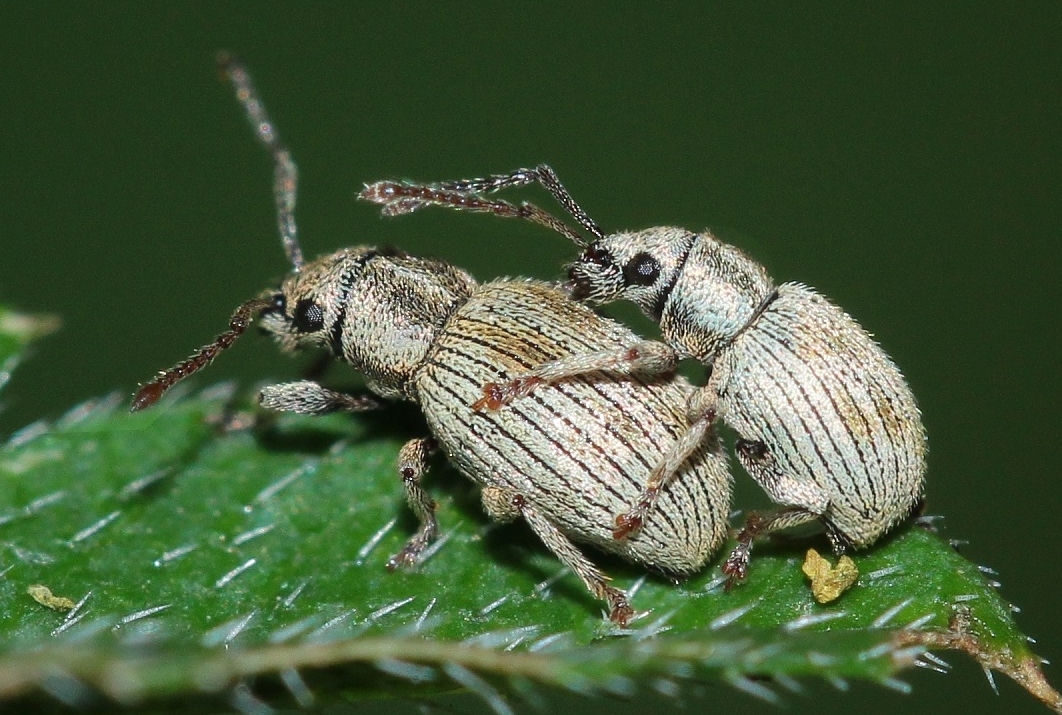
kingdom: Animalia
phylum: Arthropoda
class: Insecta
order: Coleoptera
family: Curculionidae
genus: Argoptochus
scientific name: Argoptochus subsignatus
